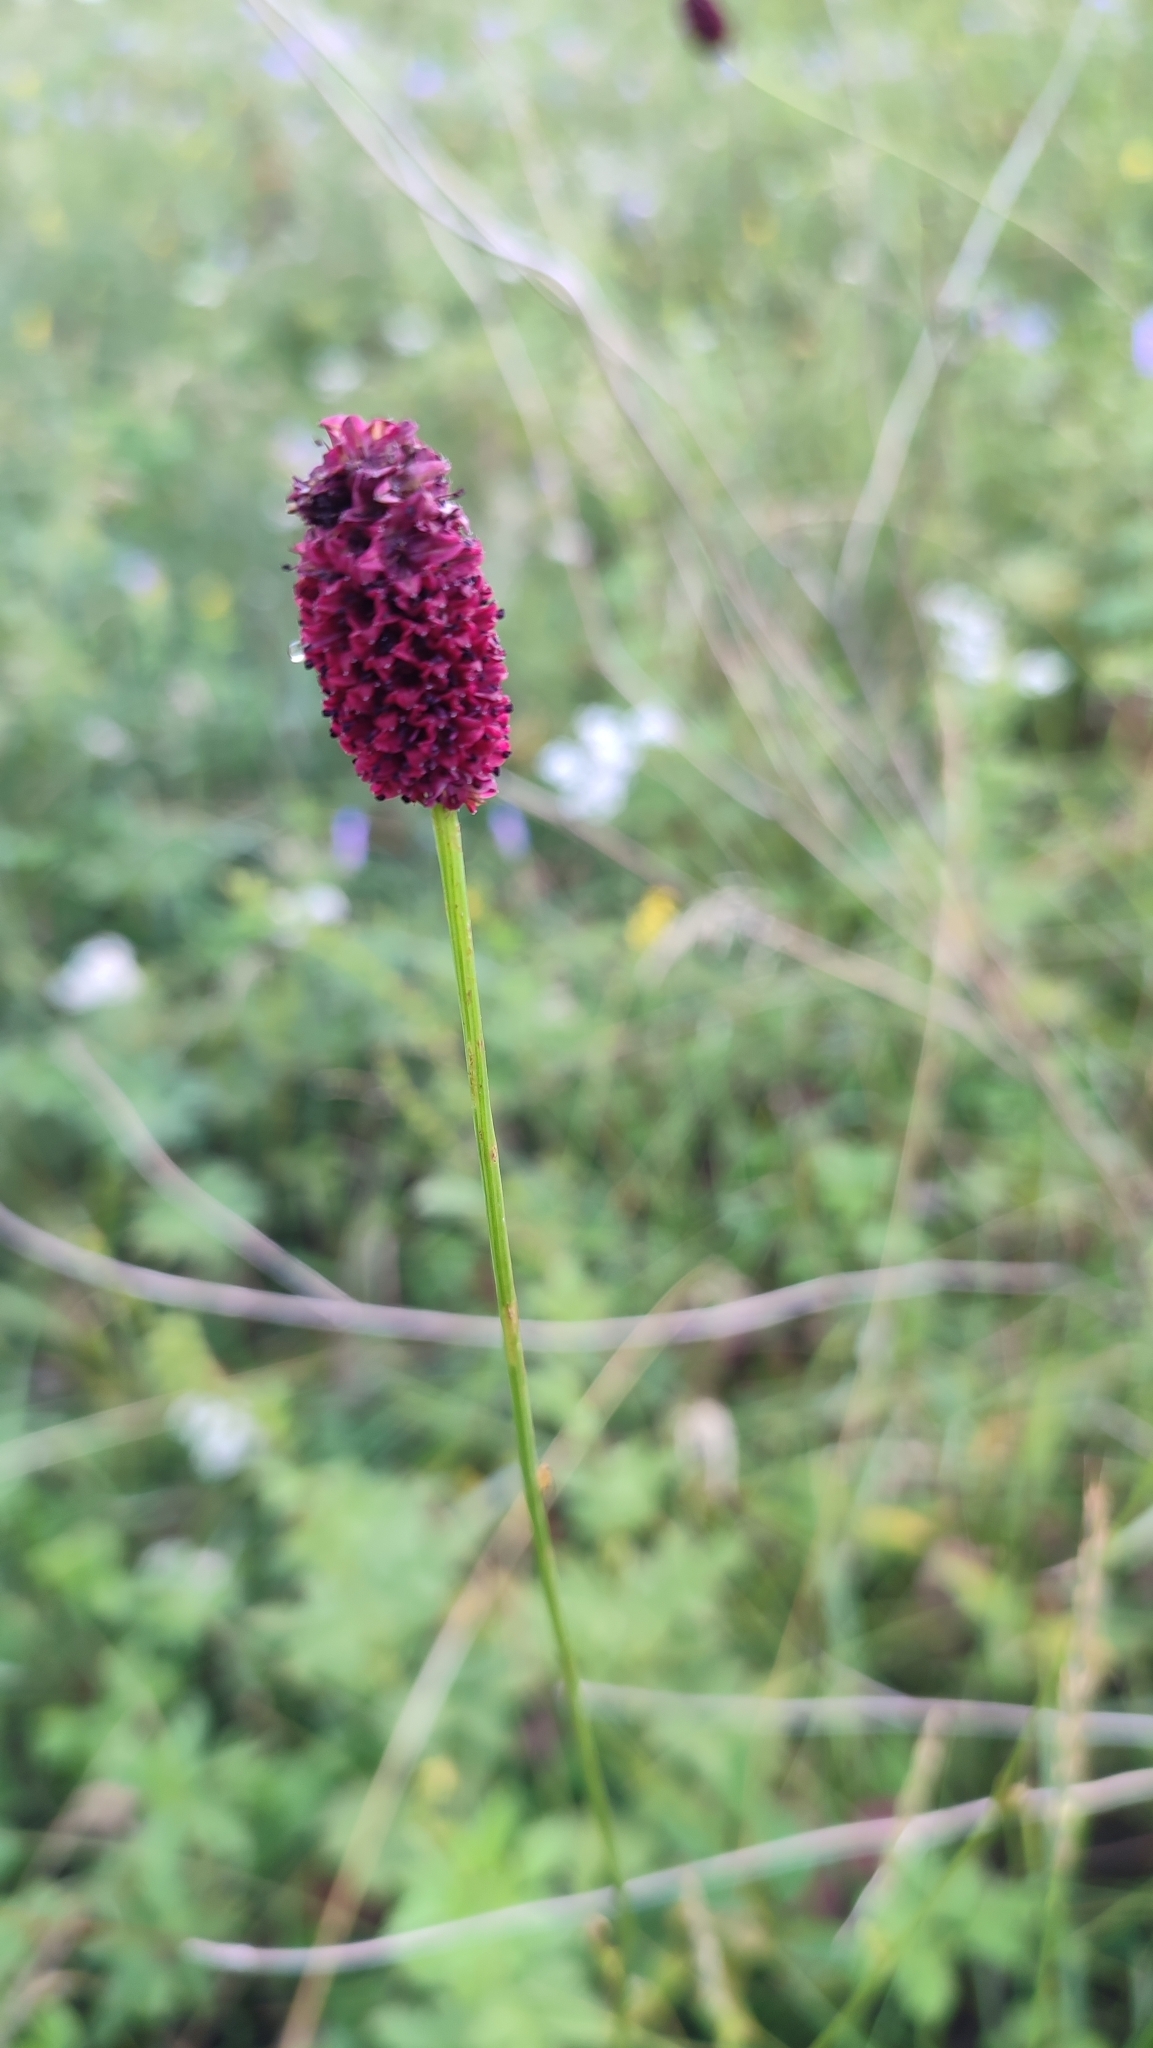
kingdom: Plantae
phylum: Tracheophyta
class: Magnoliopsida
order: Rosales
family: Rosaceae
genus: Sanguisorba
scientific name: Sanguisorba officinalis
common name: Great burnet
